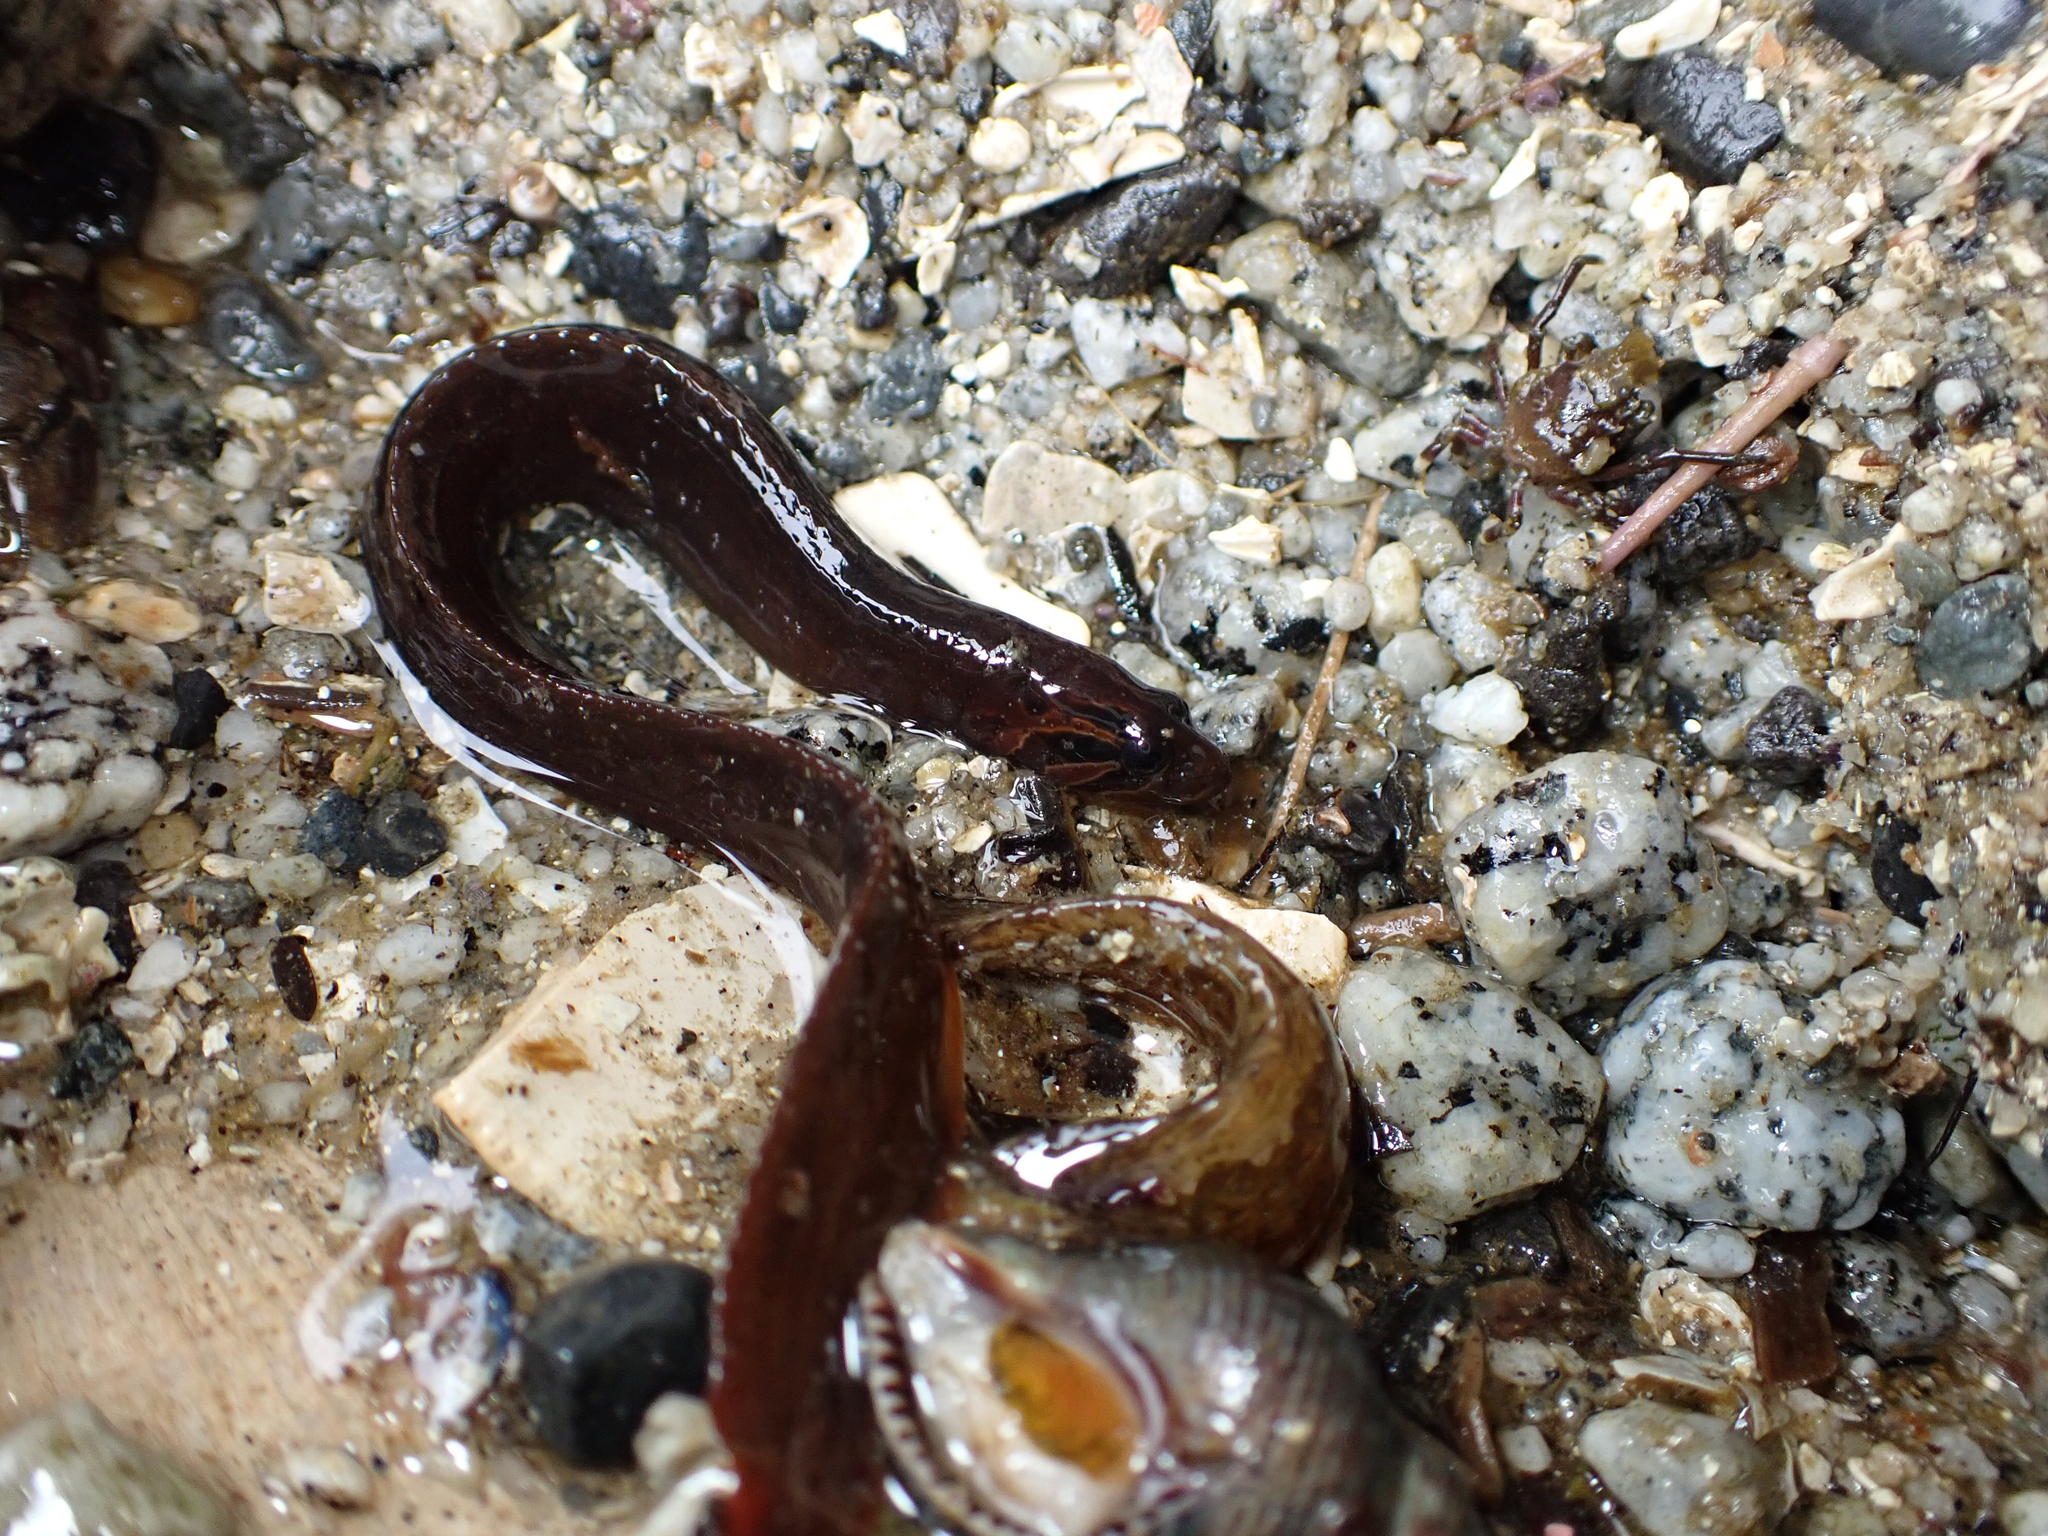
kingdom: Animalia
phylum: Chordata
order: Perciformes
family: Stichaeidae
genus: Xiphister
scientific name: Xiphister atropurpureus
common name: Black prickleback
